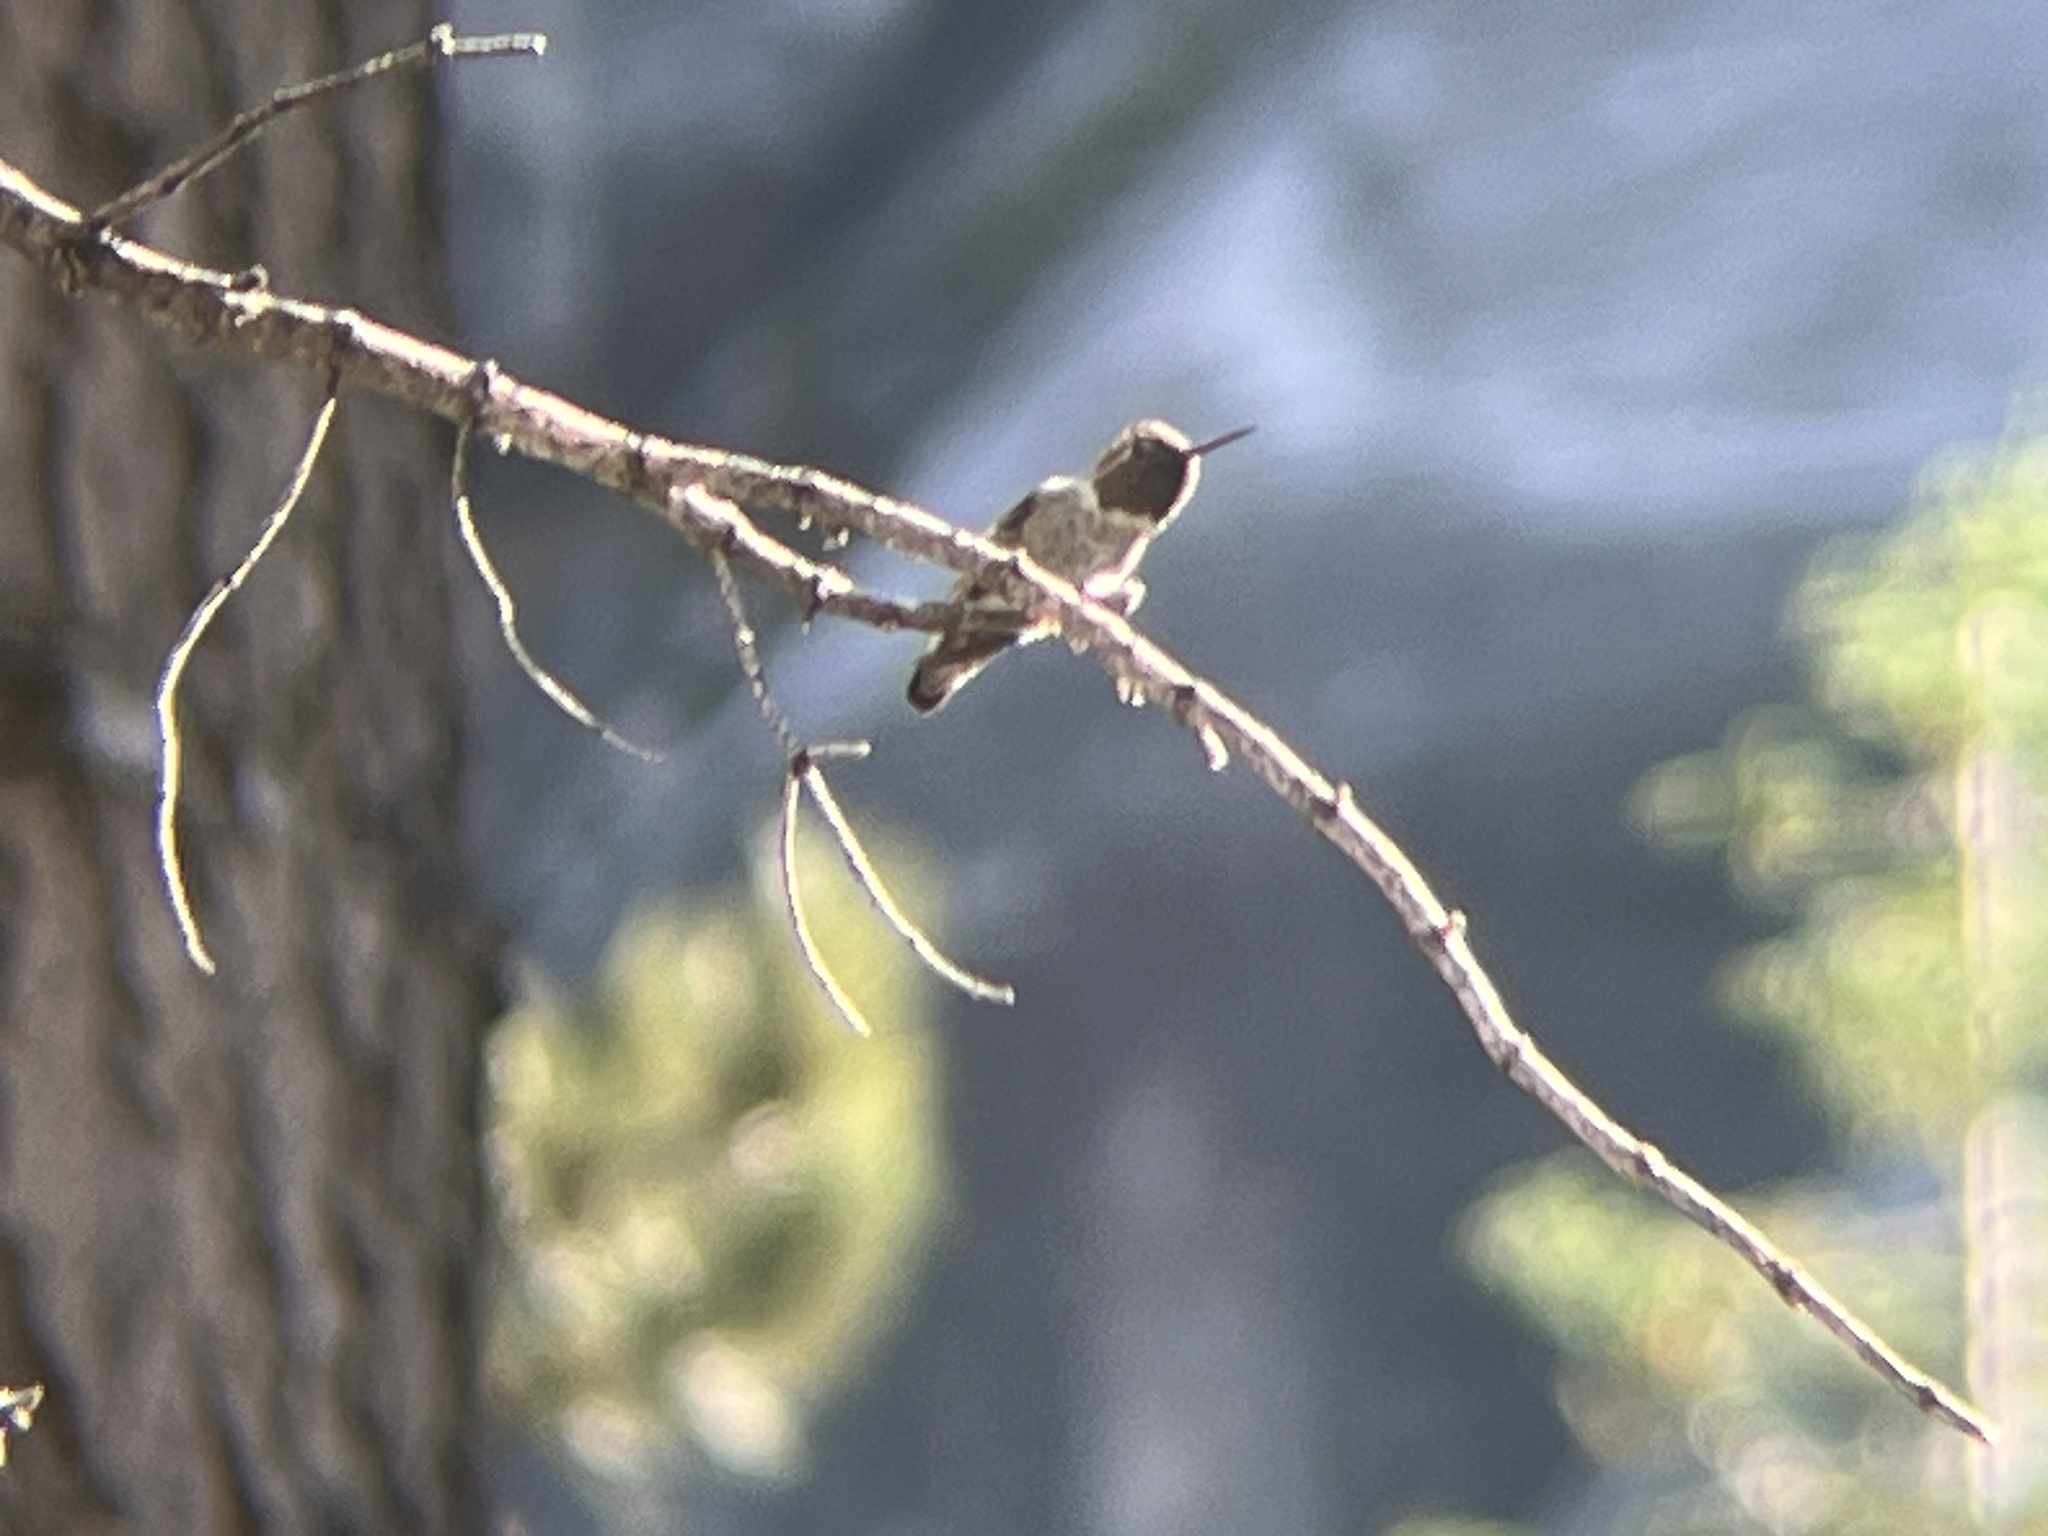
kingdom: Animalia
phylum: Chordata
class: Aves
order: Apodiformes
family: Trochilidae
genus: Calypte
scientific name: Calypte anna
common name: Anna's hummingbird
